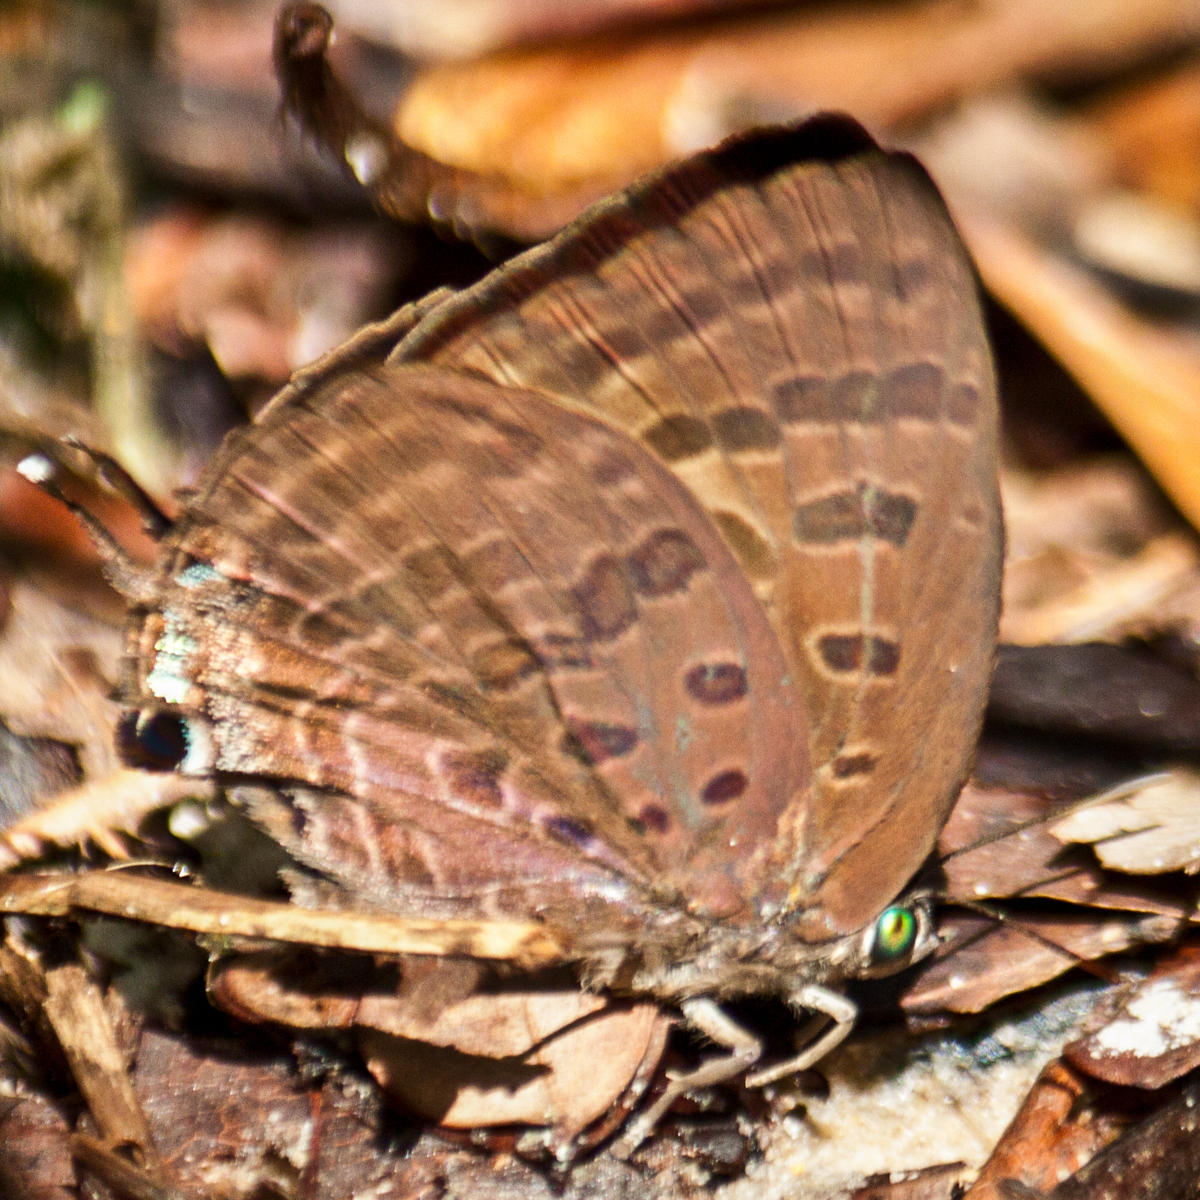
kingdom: Animalia
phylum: Arthropoda
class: Insecta
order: Lepidoptera
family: Lycaenidae
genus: Arhopala
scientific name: Arhopala athada
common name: Vinous oakblue
